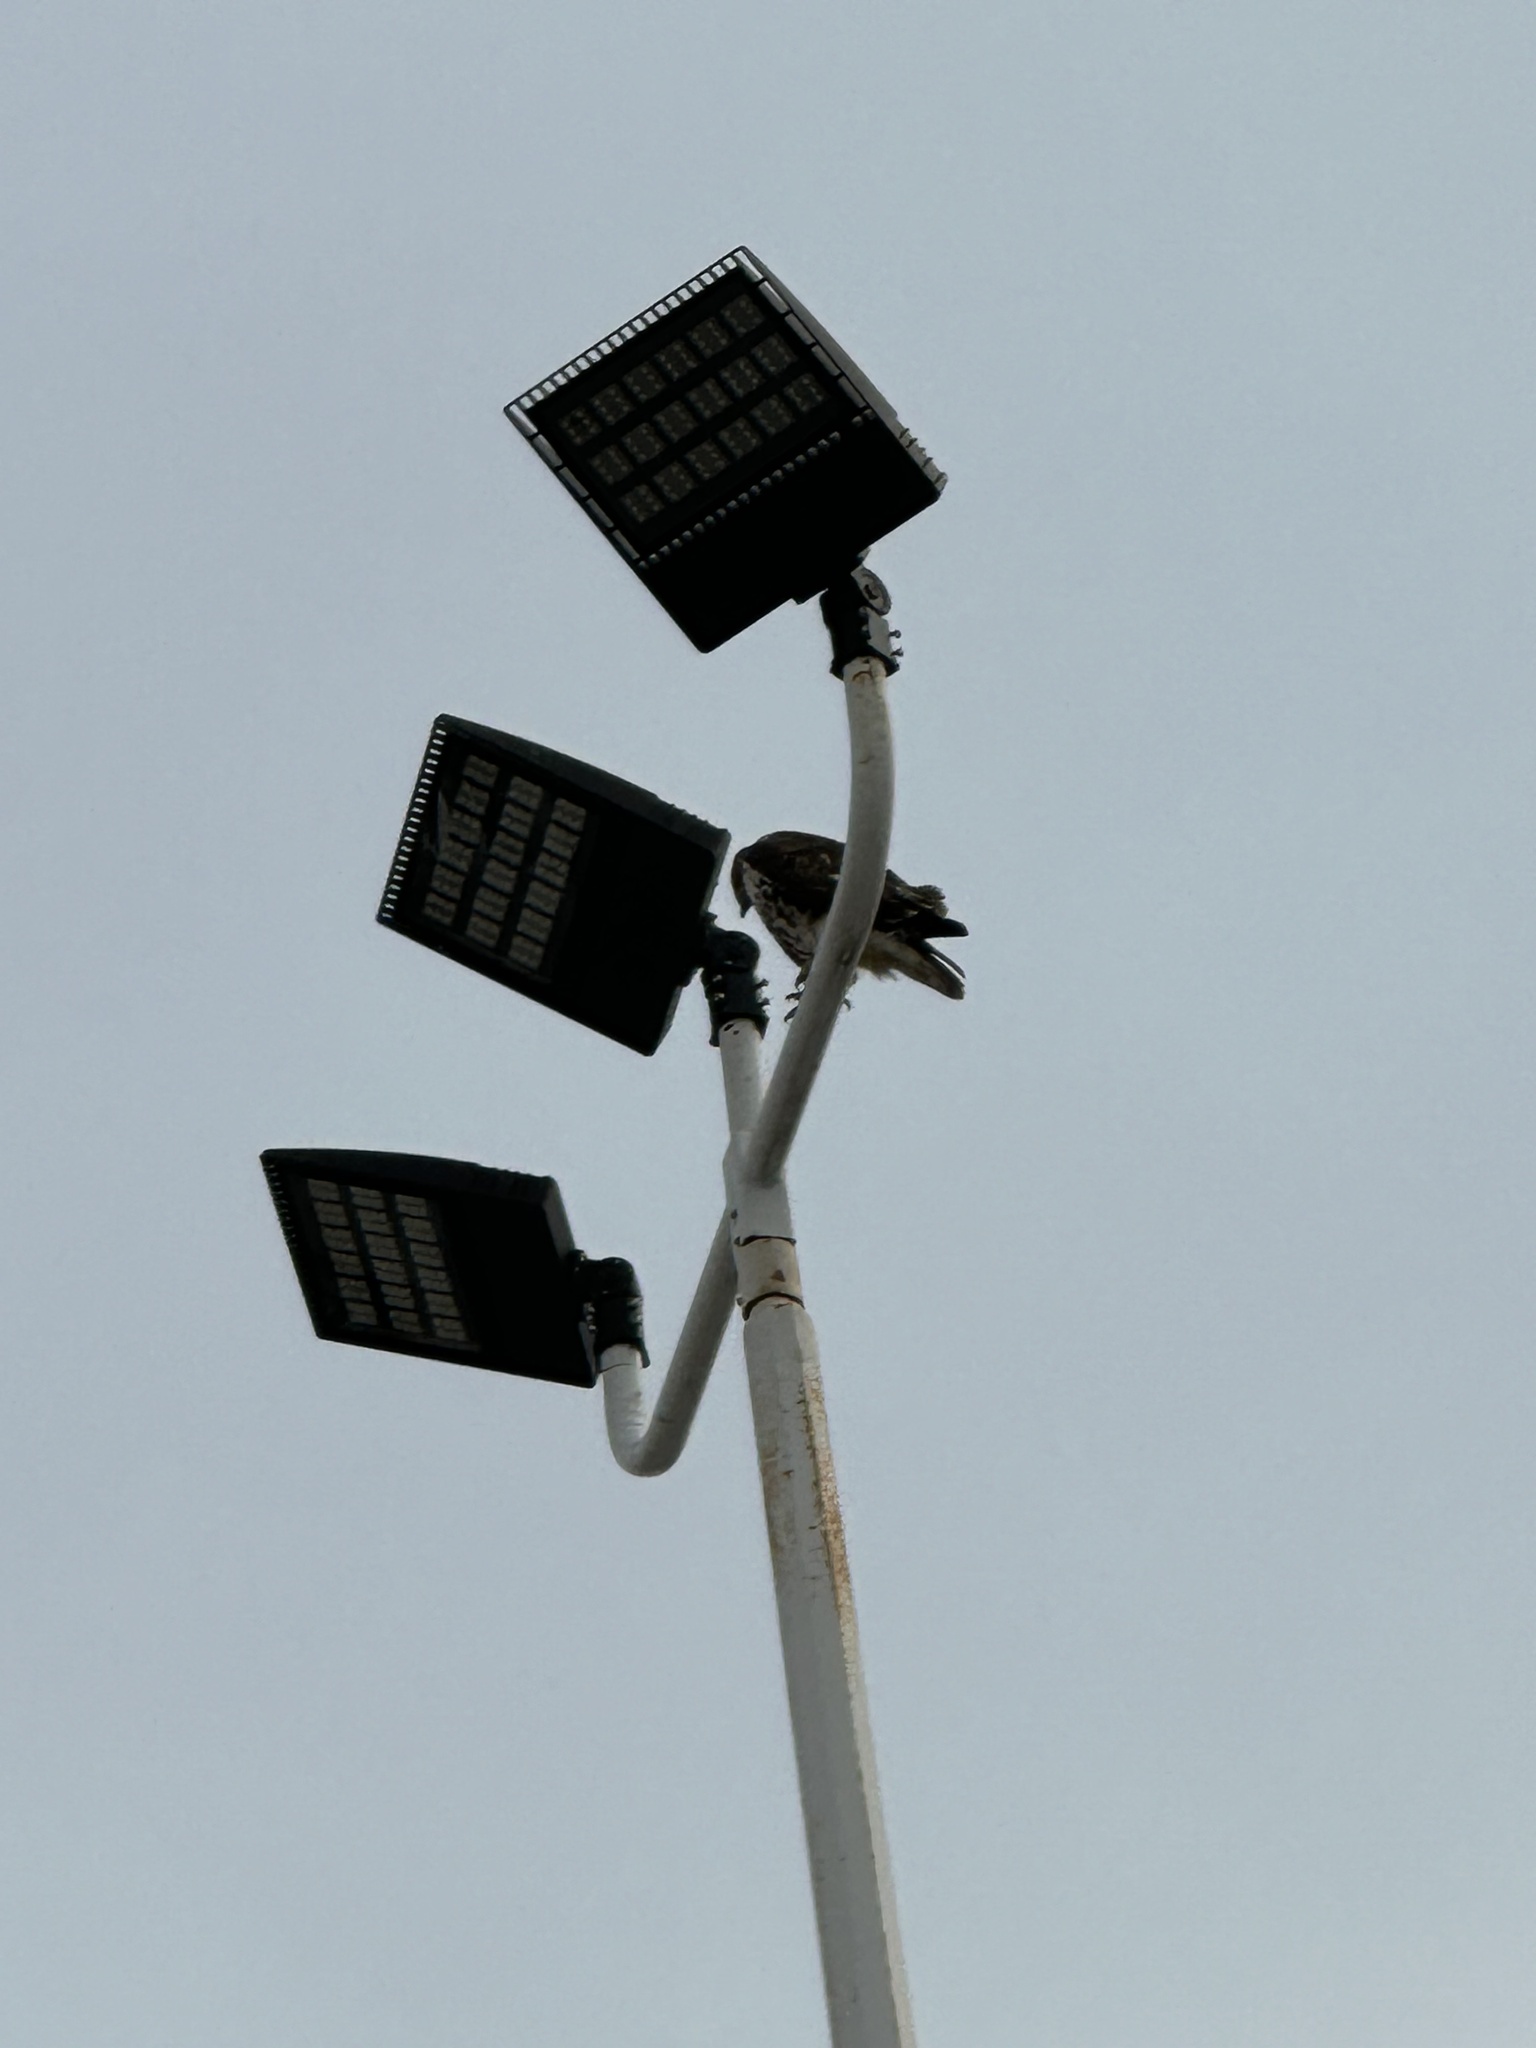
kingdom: Animalia
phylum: Chordata
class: Aves
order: Accipitriformes
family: Accipitridae
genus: Buteo
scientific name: Buteo jamaicensis
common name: Red-tailed hawk
